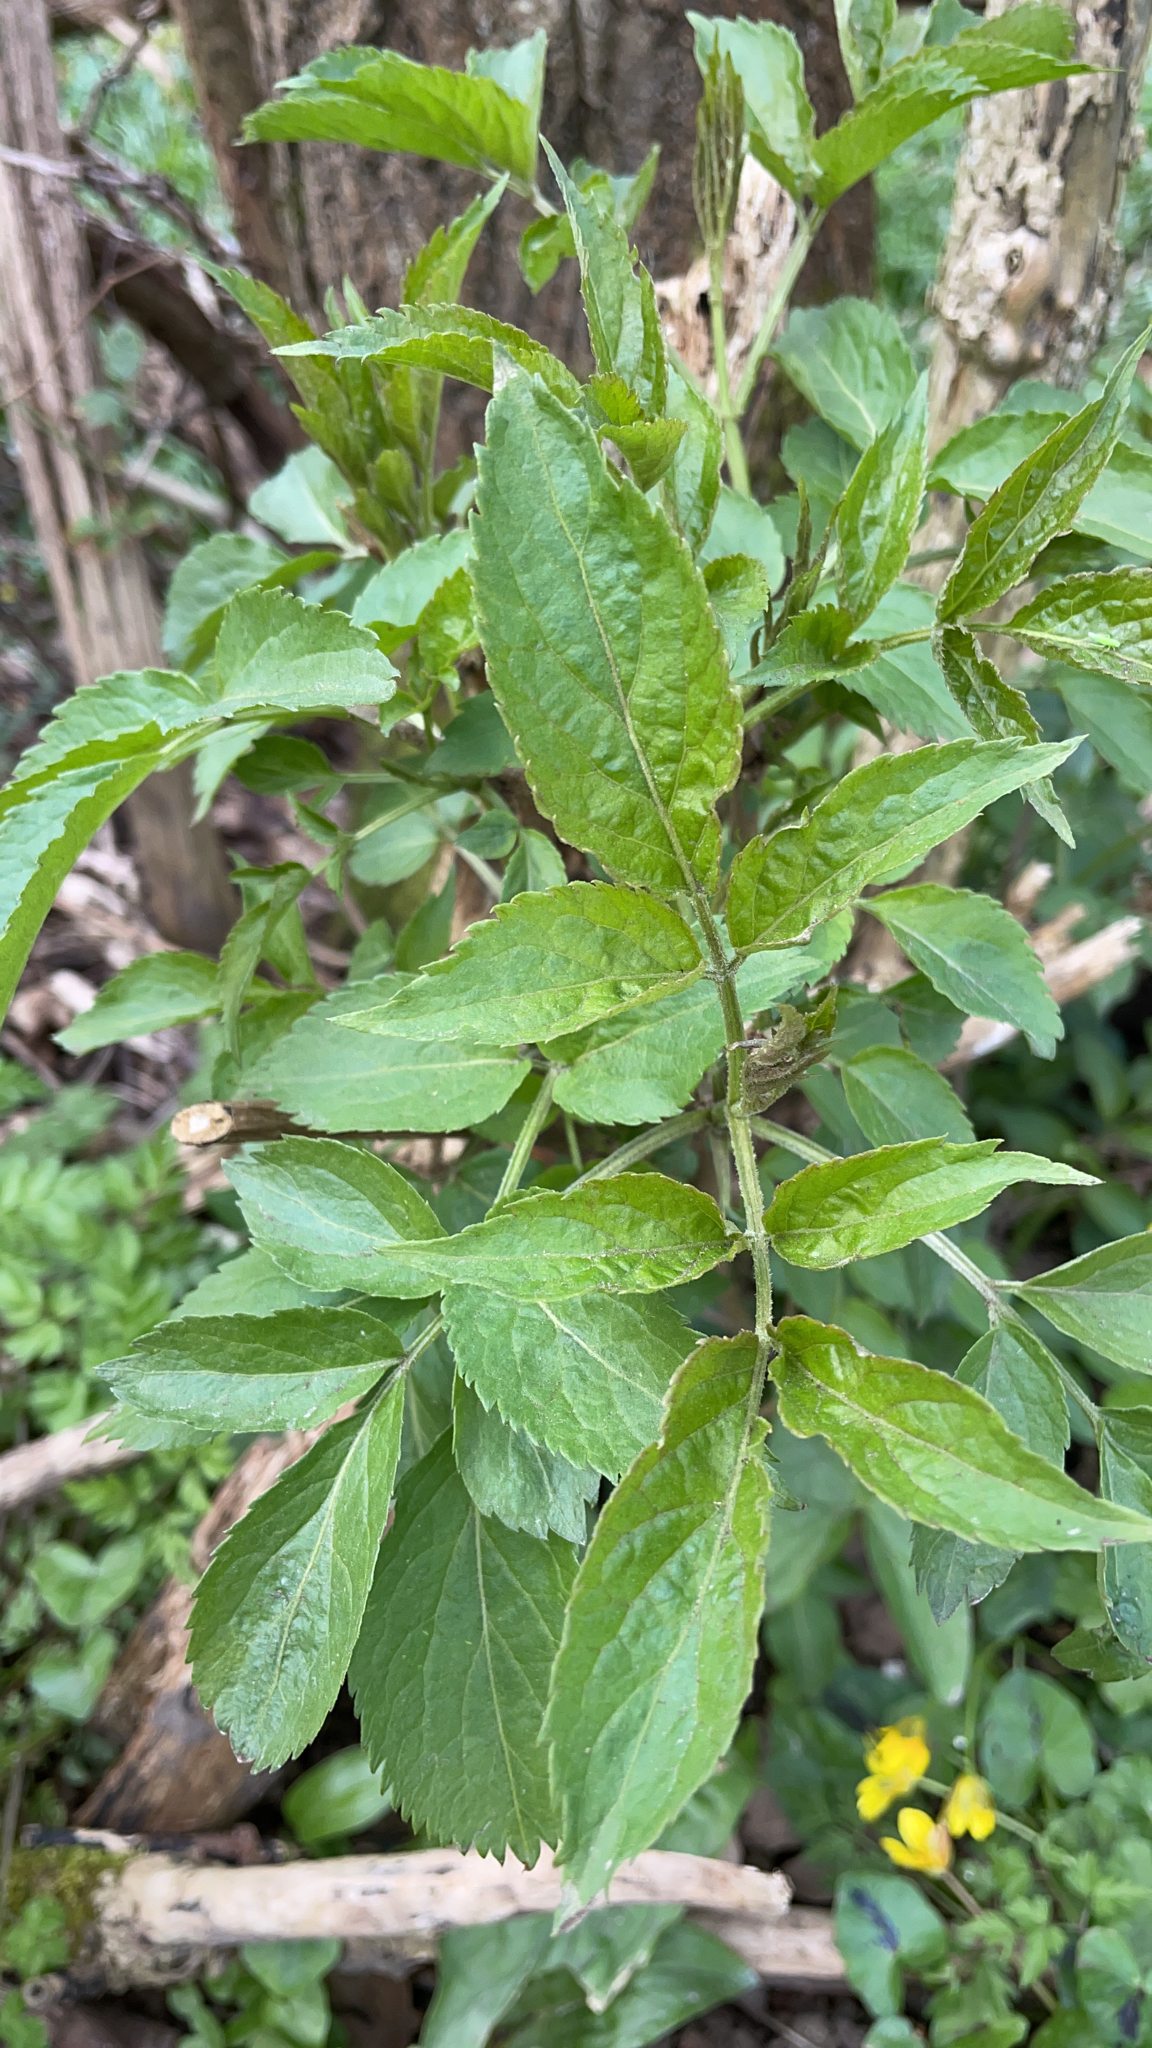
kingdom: Plantae
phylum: Tracheophyta
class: Magnoliopsida
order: Dipsacales
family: Viburnaceae
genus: Sambucus
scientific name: Sambucus nigra
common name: Elder
